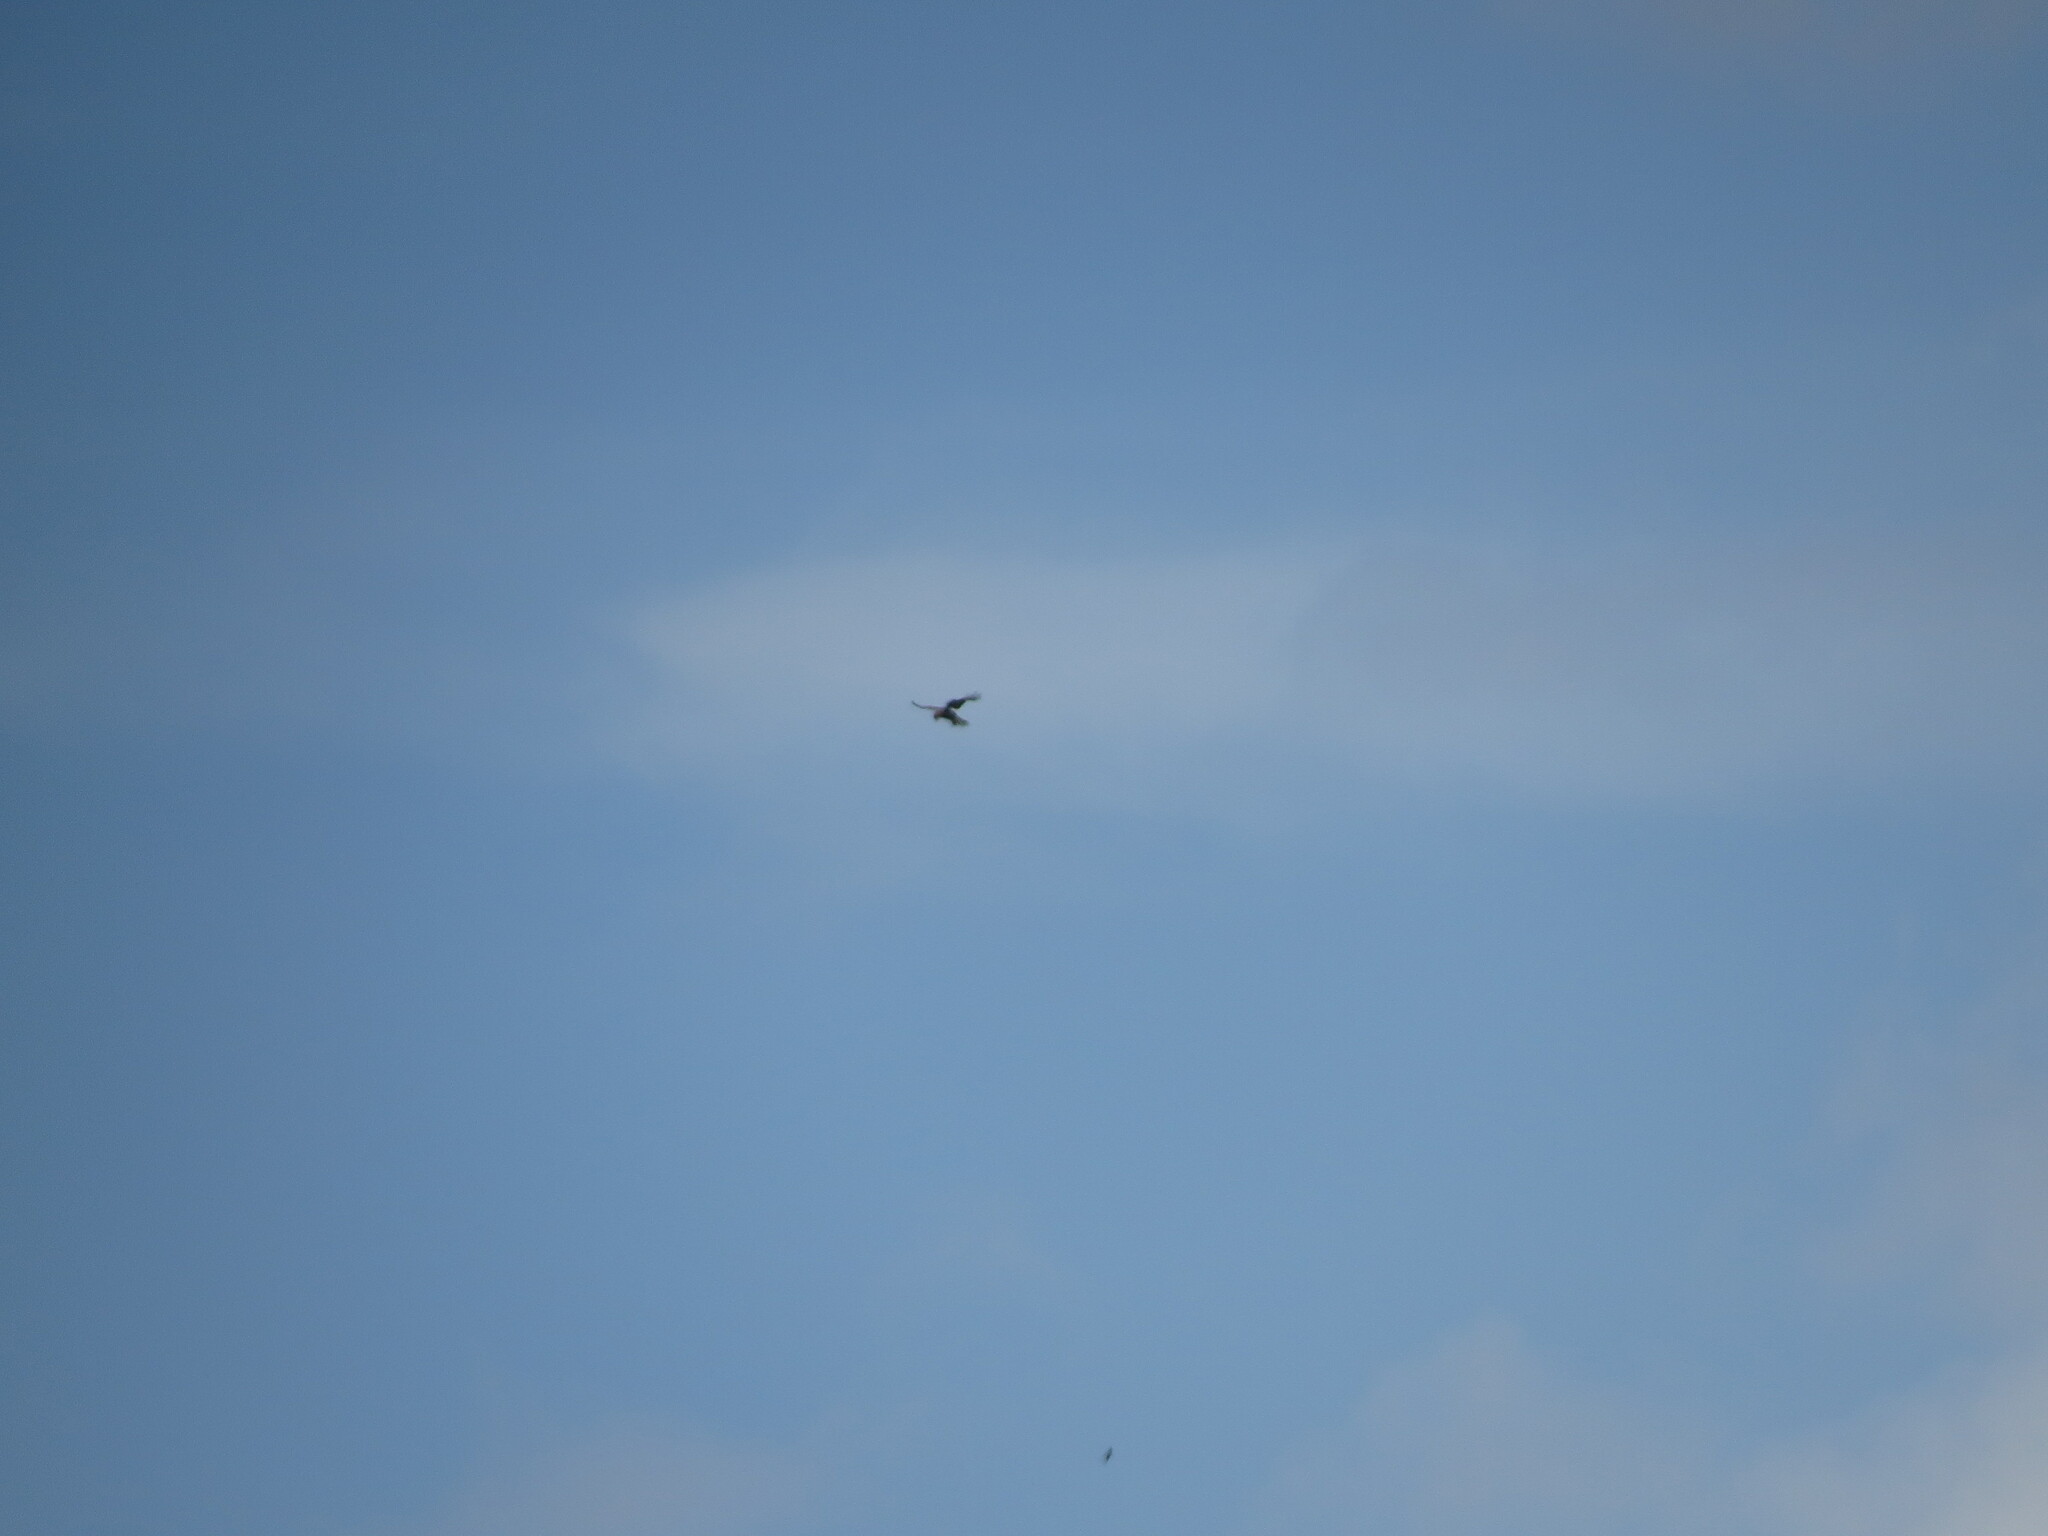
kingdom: Animalia
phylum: Chordata
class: Aves
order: Falconiformes
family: Falconidae
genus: Falco
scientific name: Falco tinnunculus
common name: Common kestrel
